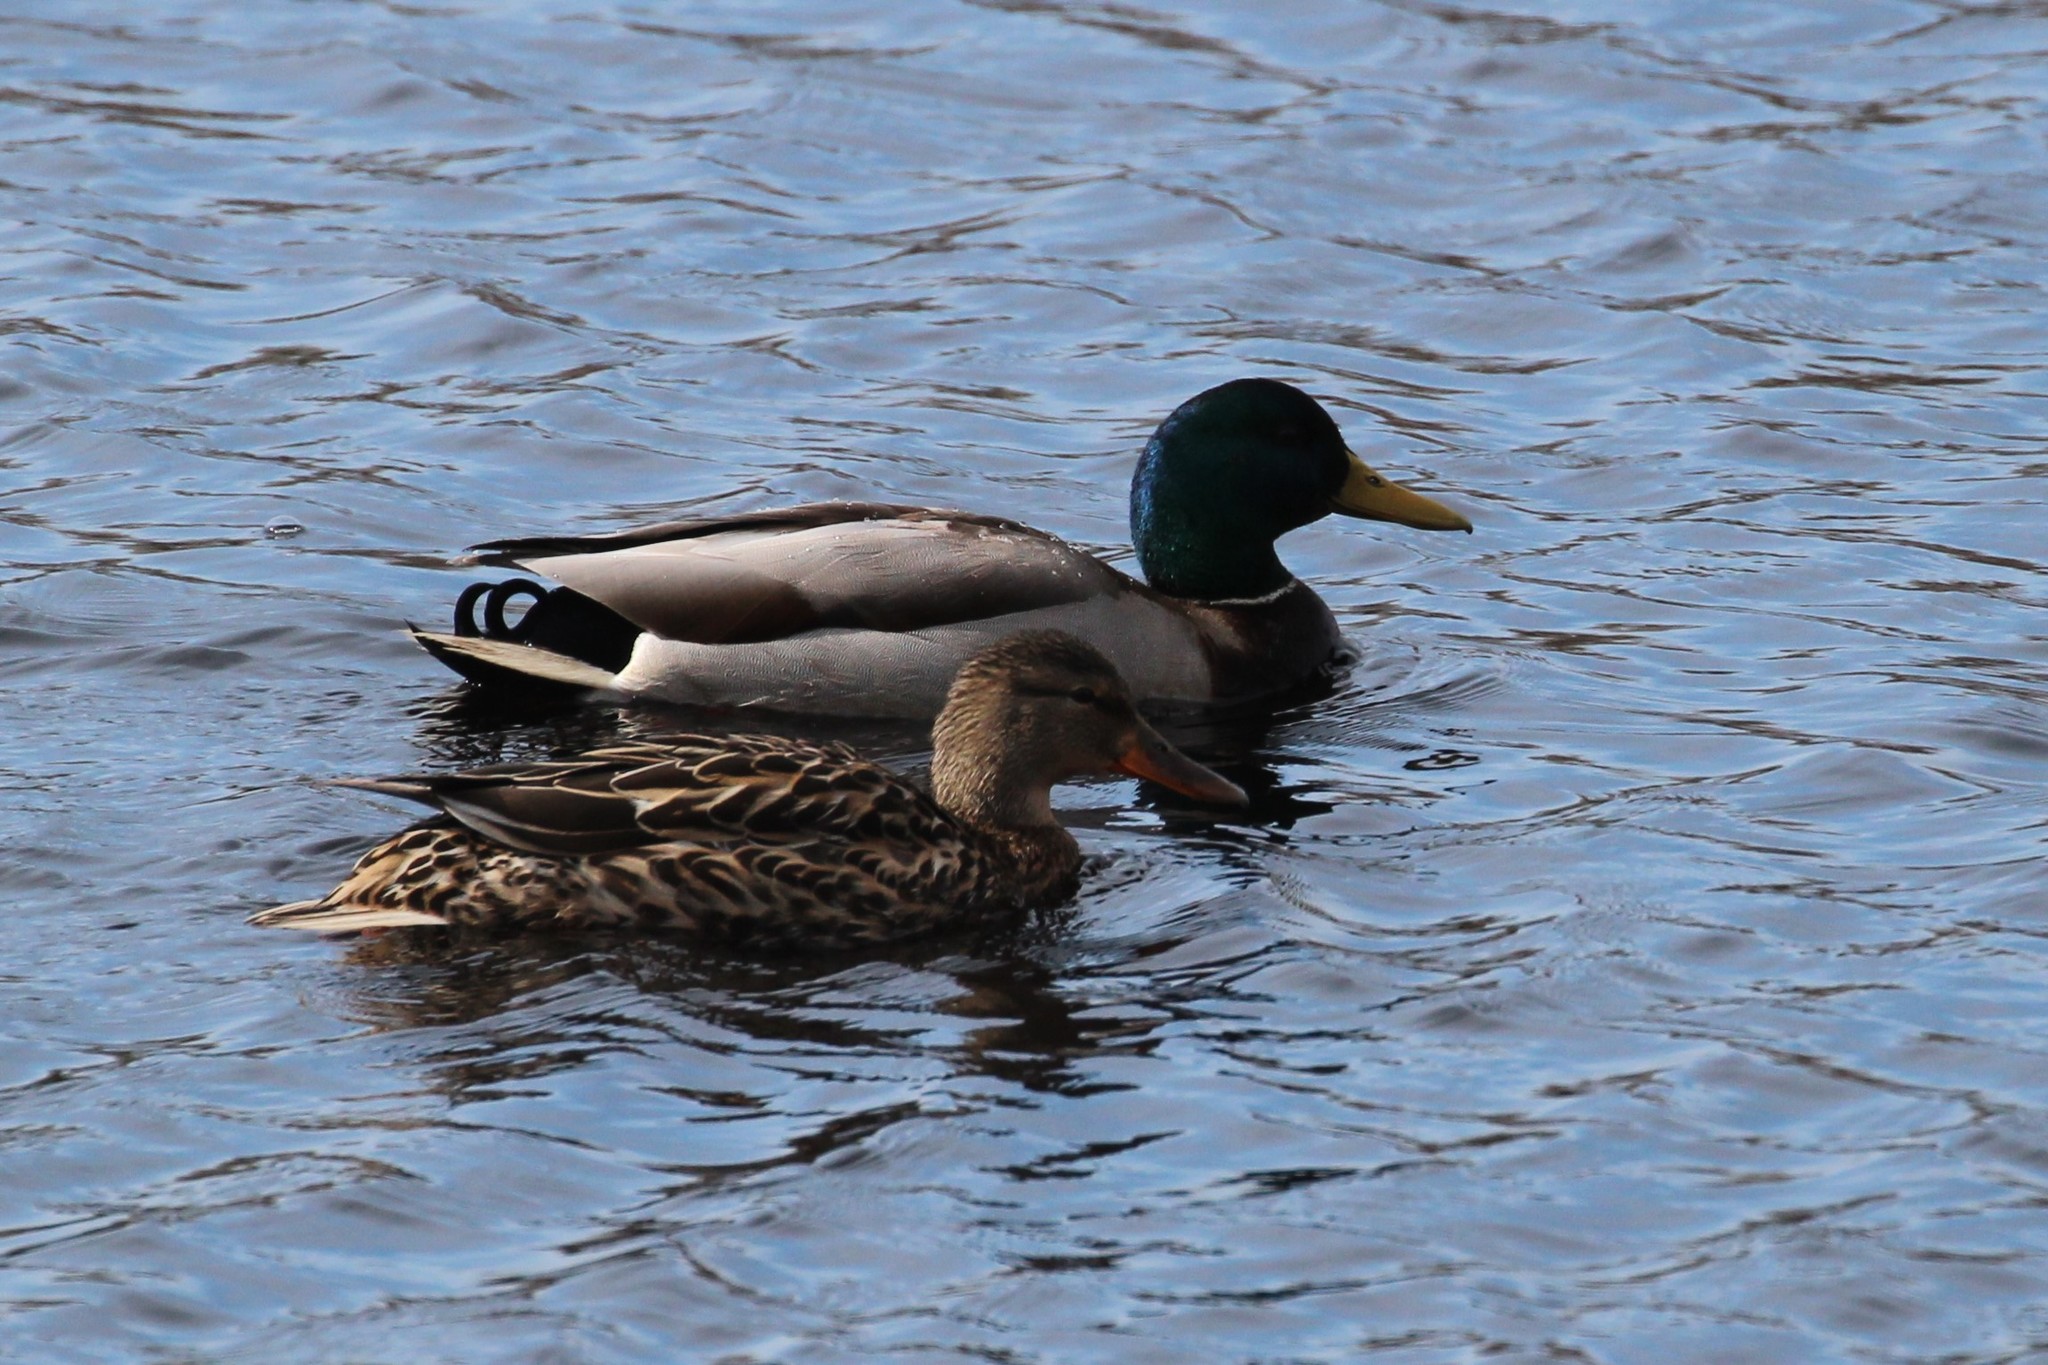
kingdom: Animalia
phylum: Chordata
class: Aves
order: Anseriformes
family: Anatidae
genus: Anas
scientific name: Anas platyrhynchos
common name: Mallard
